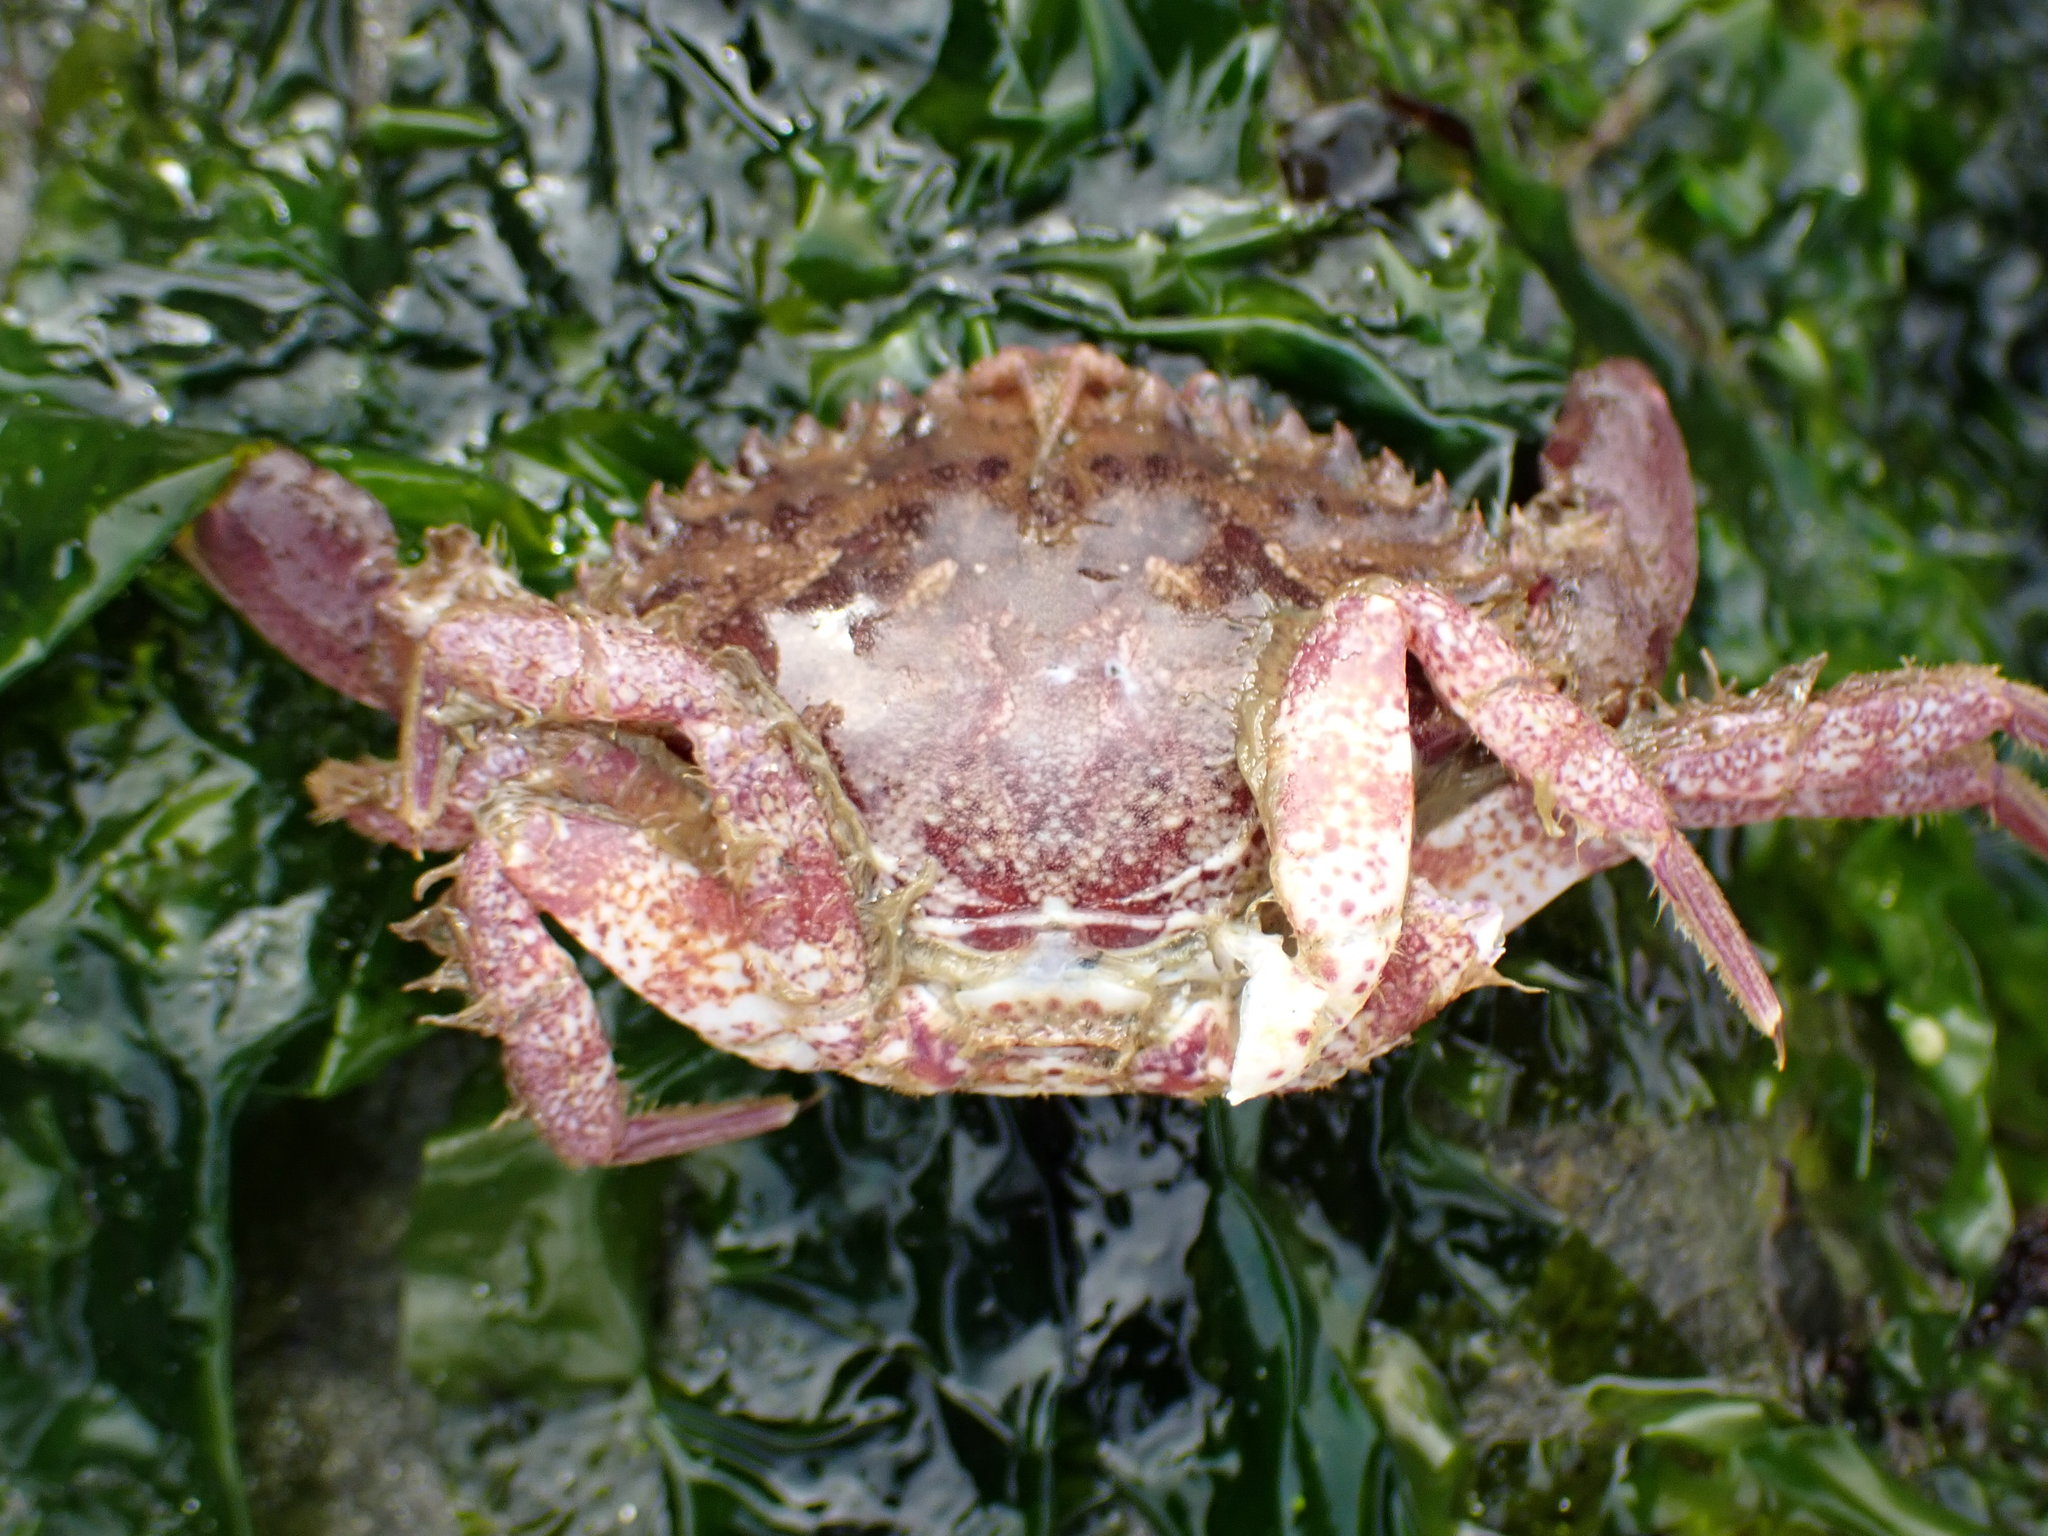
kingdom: Animalia
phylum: Arthropoda
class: Malacostraca
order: Decapoda
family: Cancridae
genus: Romaleon
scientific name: Romaleon antennarium
